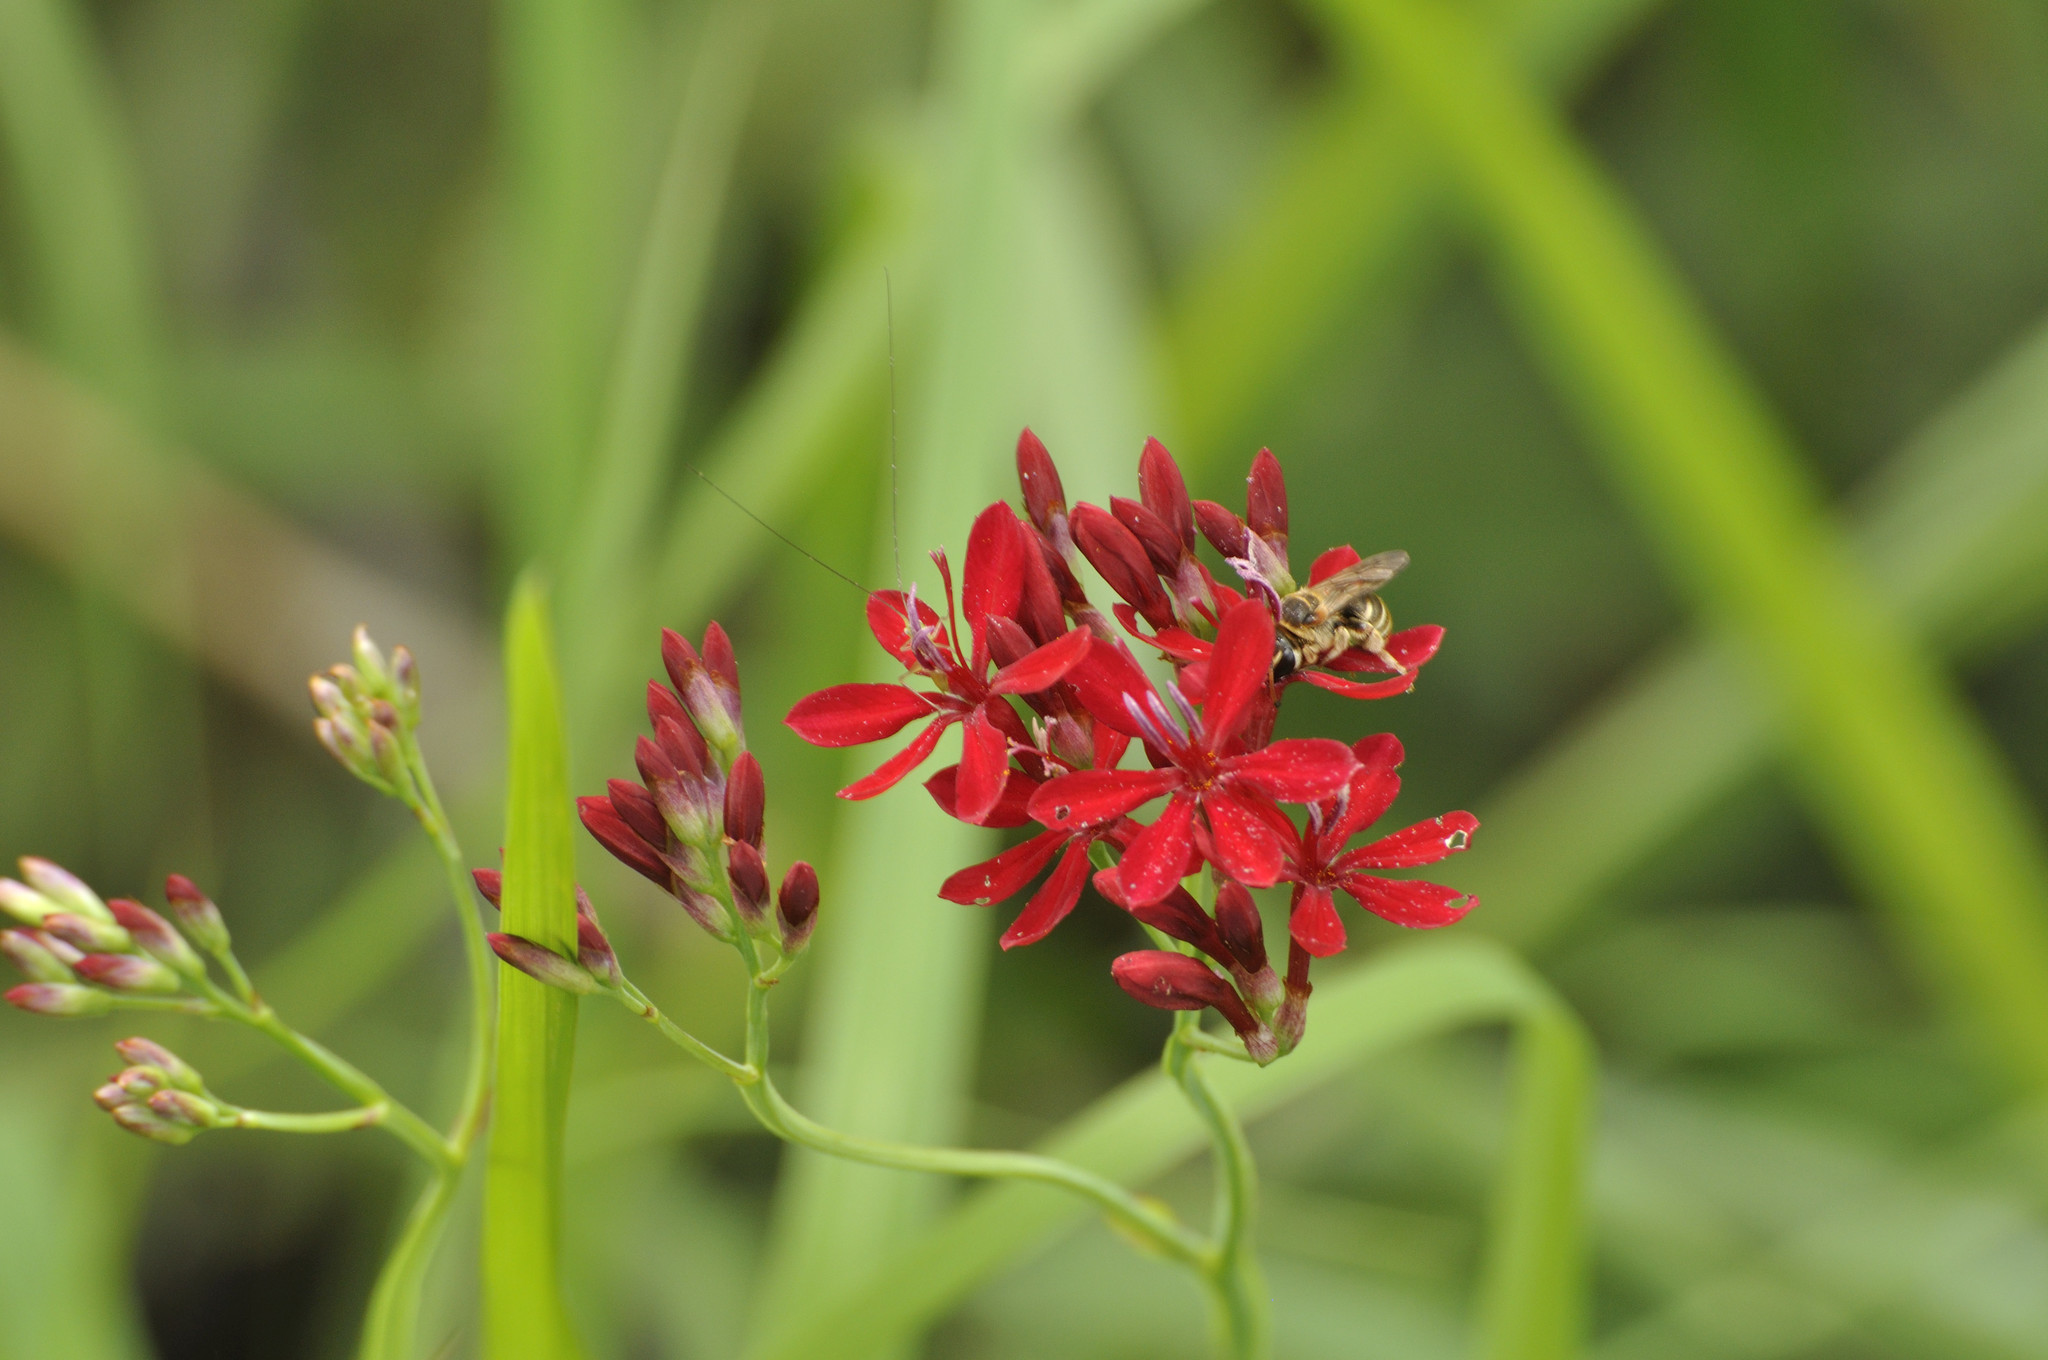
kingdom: Plantae
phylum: Tracheophyta
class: Liliopsida
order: Asparagales
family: Iridaceae
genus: Afrosolen
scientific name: Afrosolen erythranthus
